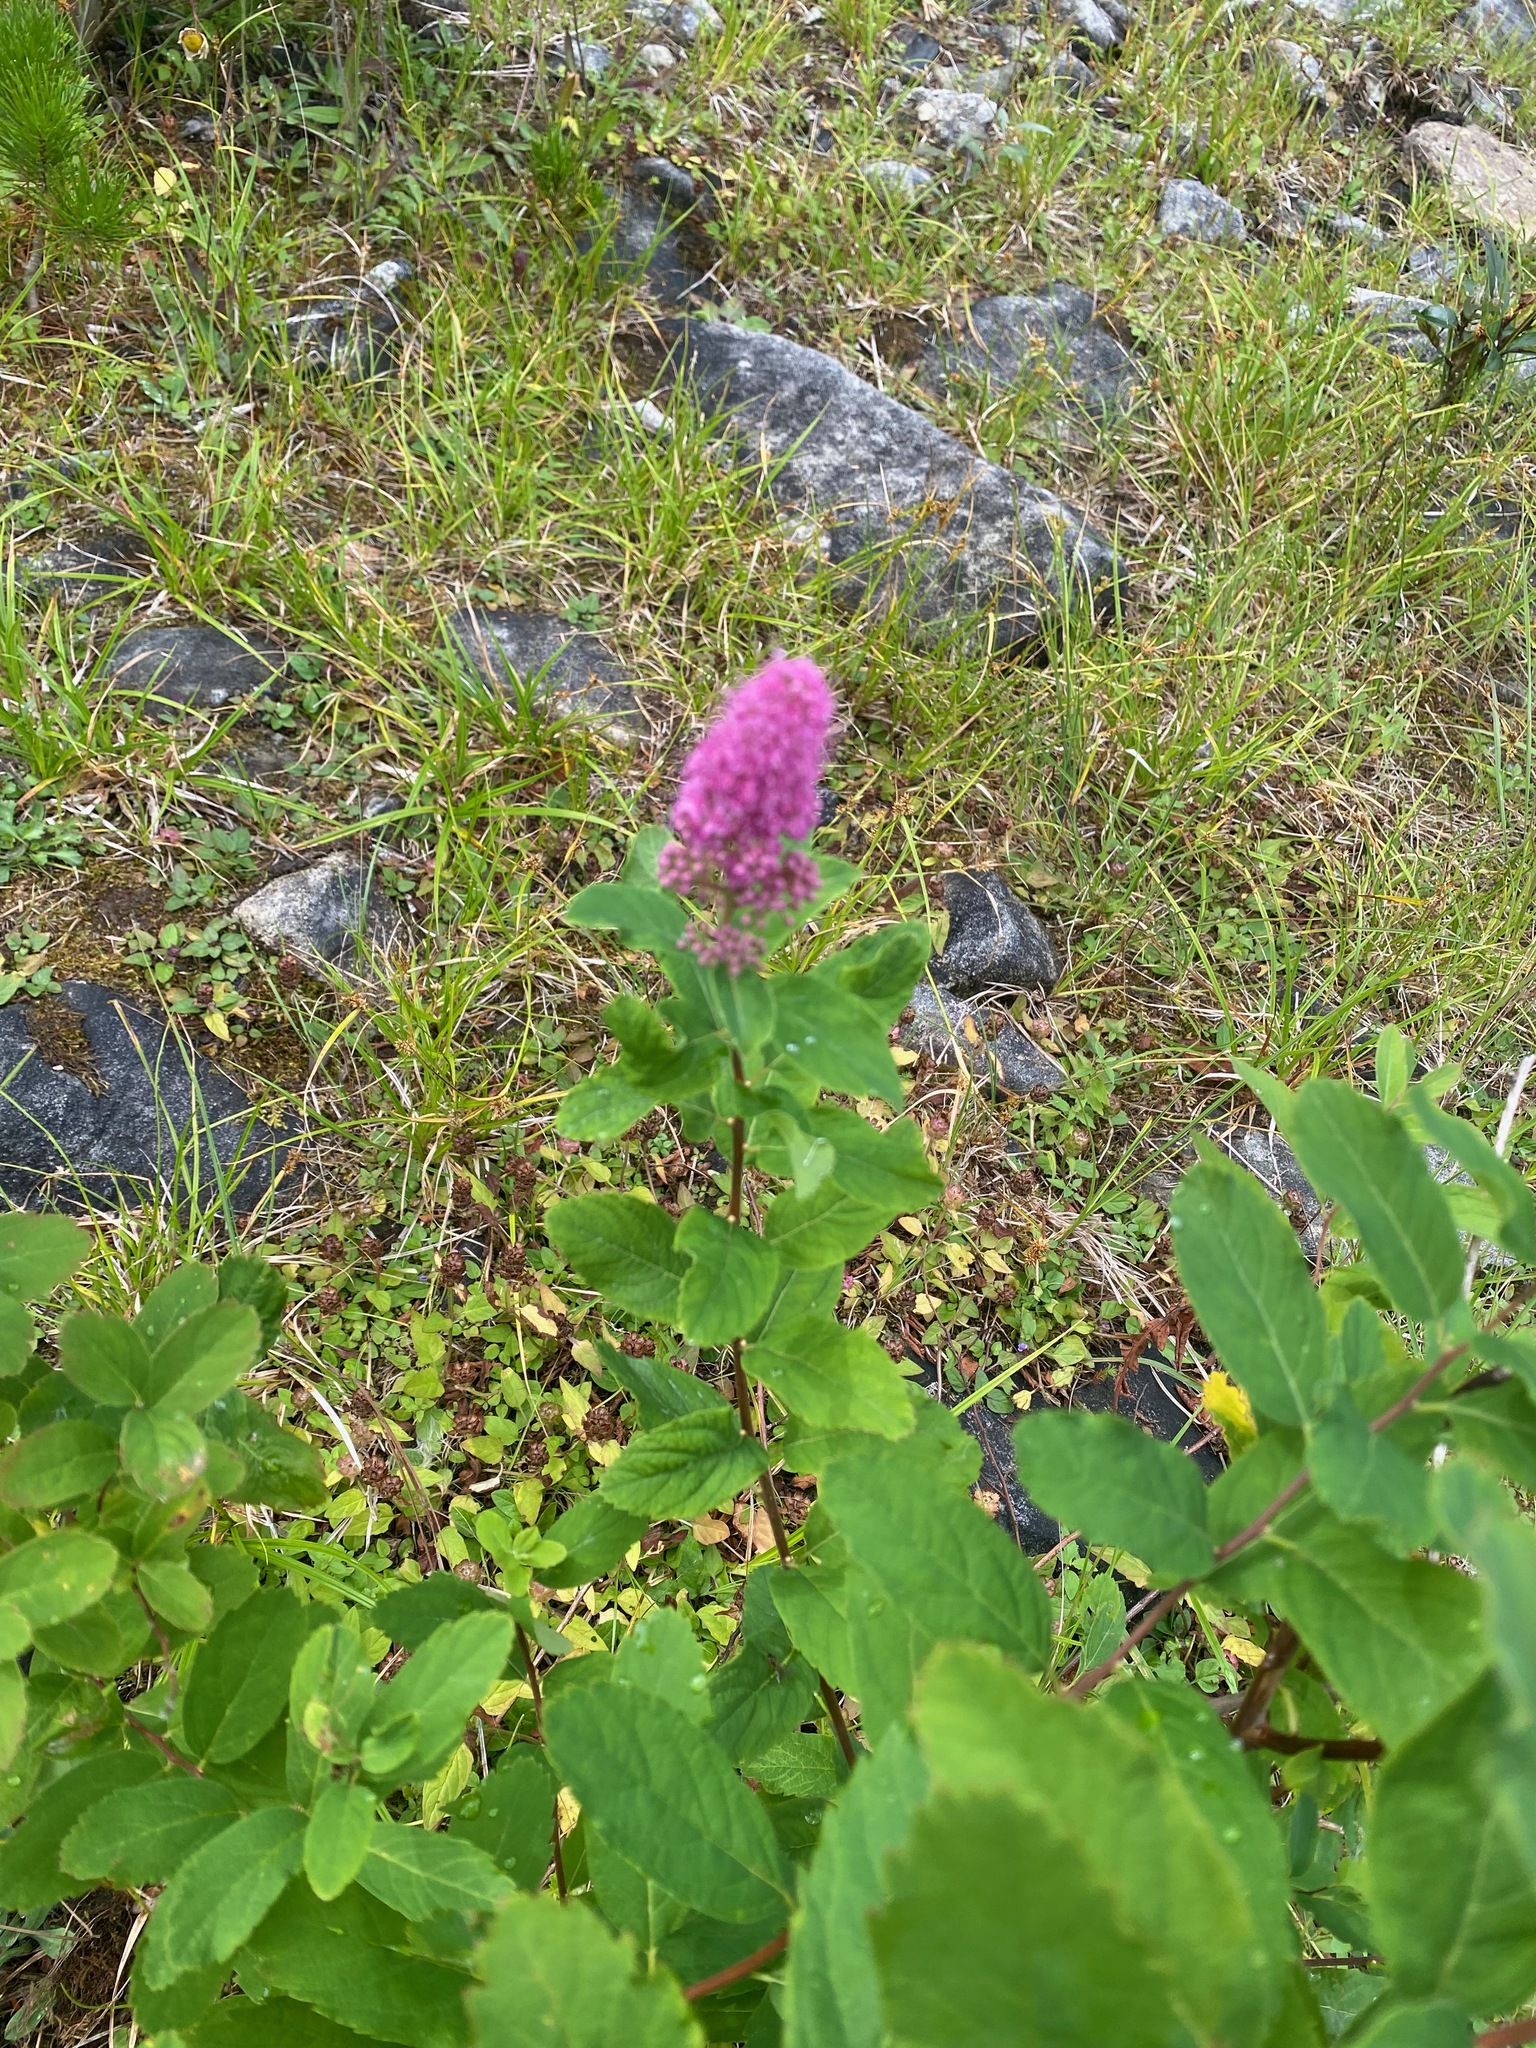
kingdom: Plantae
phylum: Tracheophyta
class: Magnoliopsida
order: Rosales
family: Rosaceae
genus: Spiraea
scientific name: Spiraea douglasii
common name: Steeplebush
